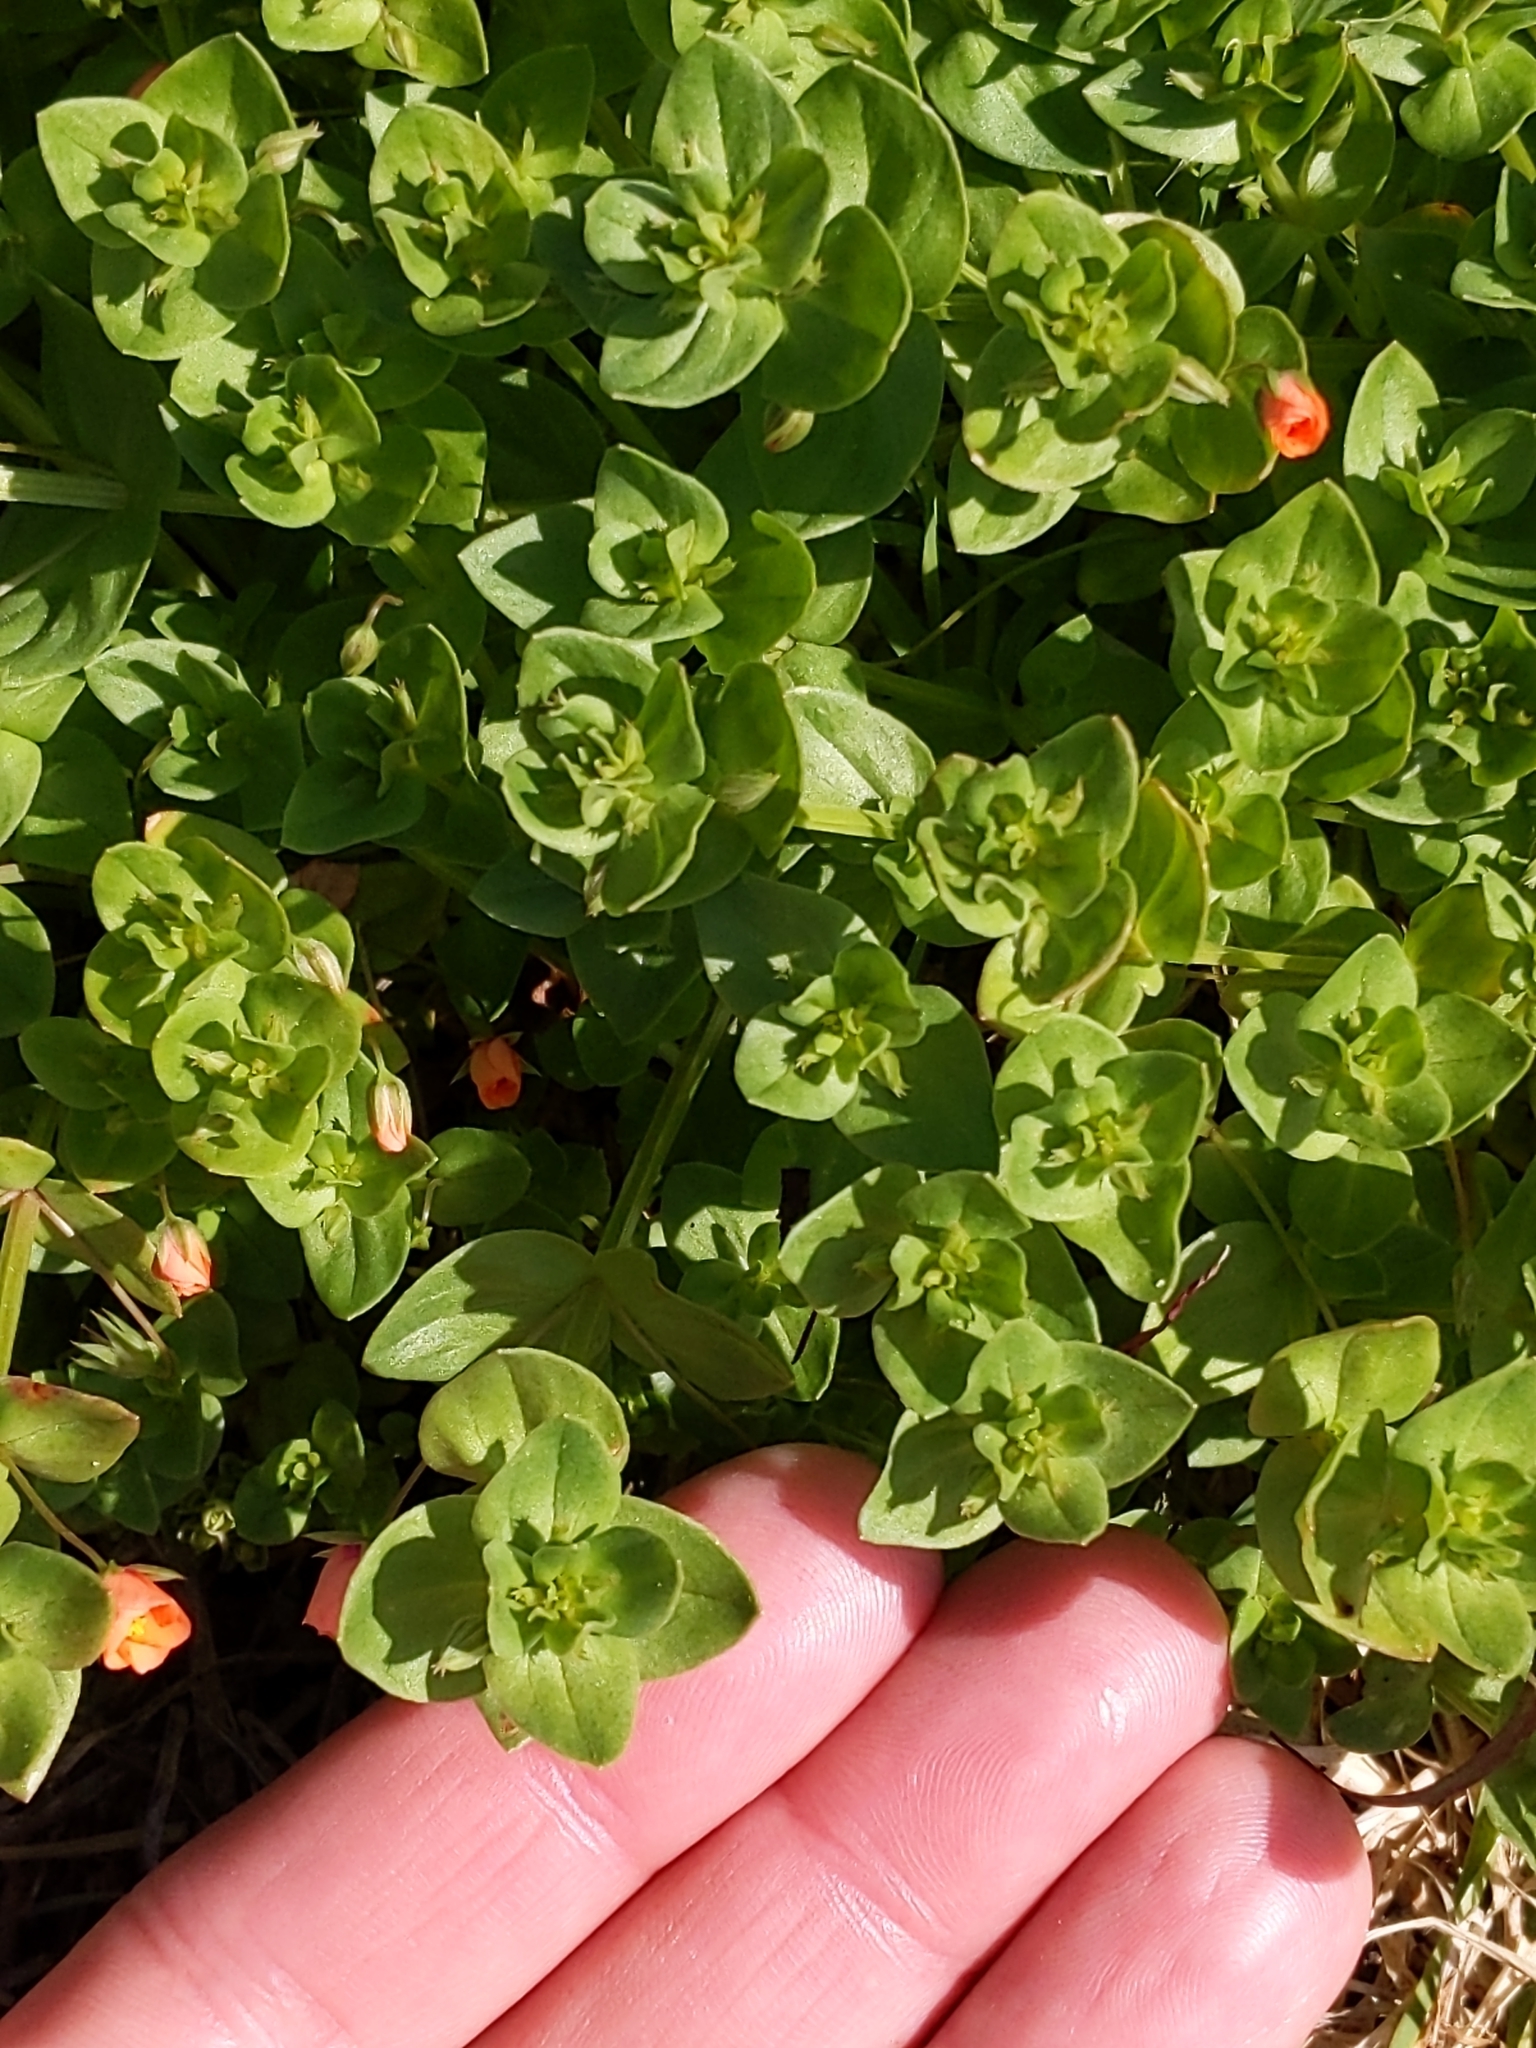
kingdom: Plantae
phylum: Tracheophyta
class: Magnoliopsida
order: Ericales
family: Primulaceae
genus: Lysimachia
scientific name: Lysimachia arvensis
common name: Scarlet pimpernel
